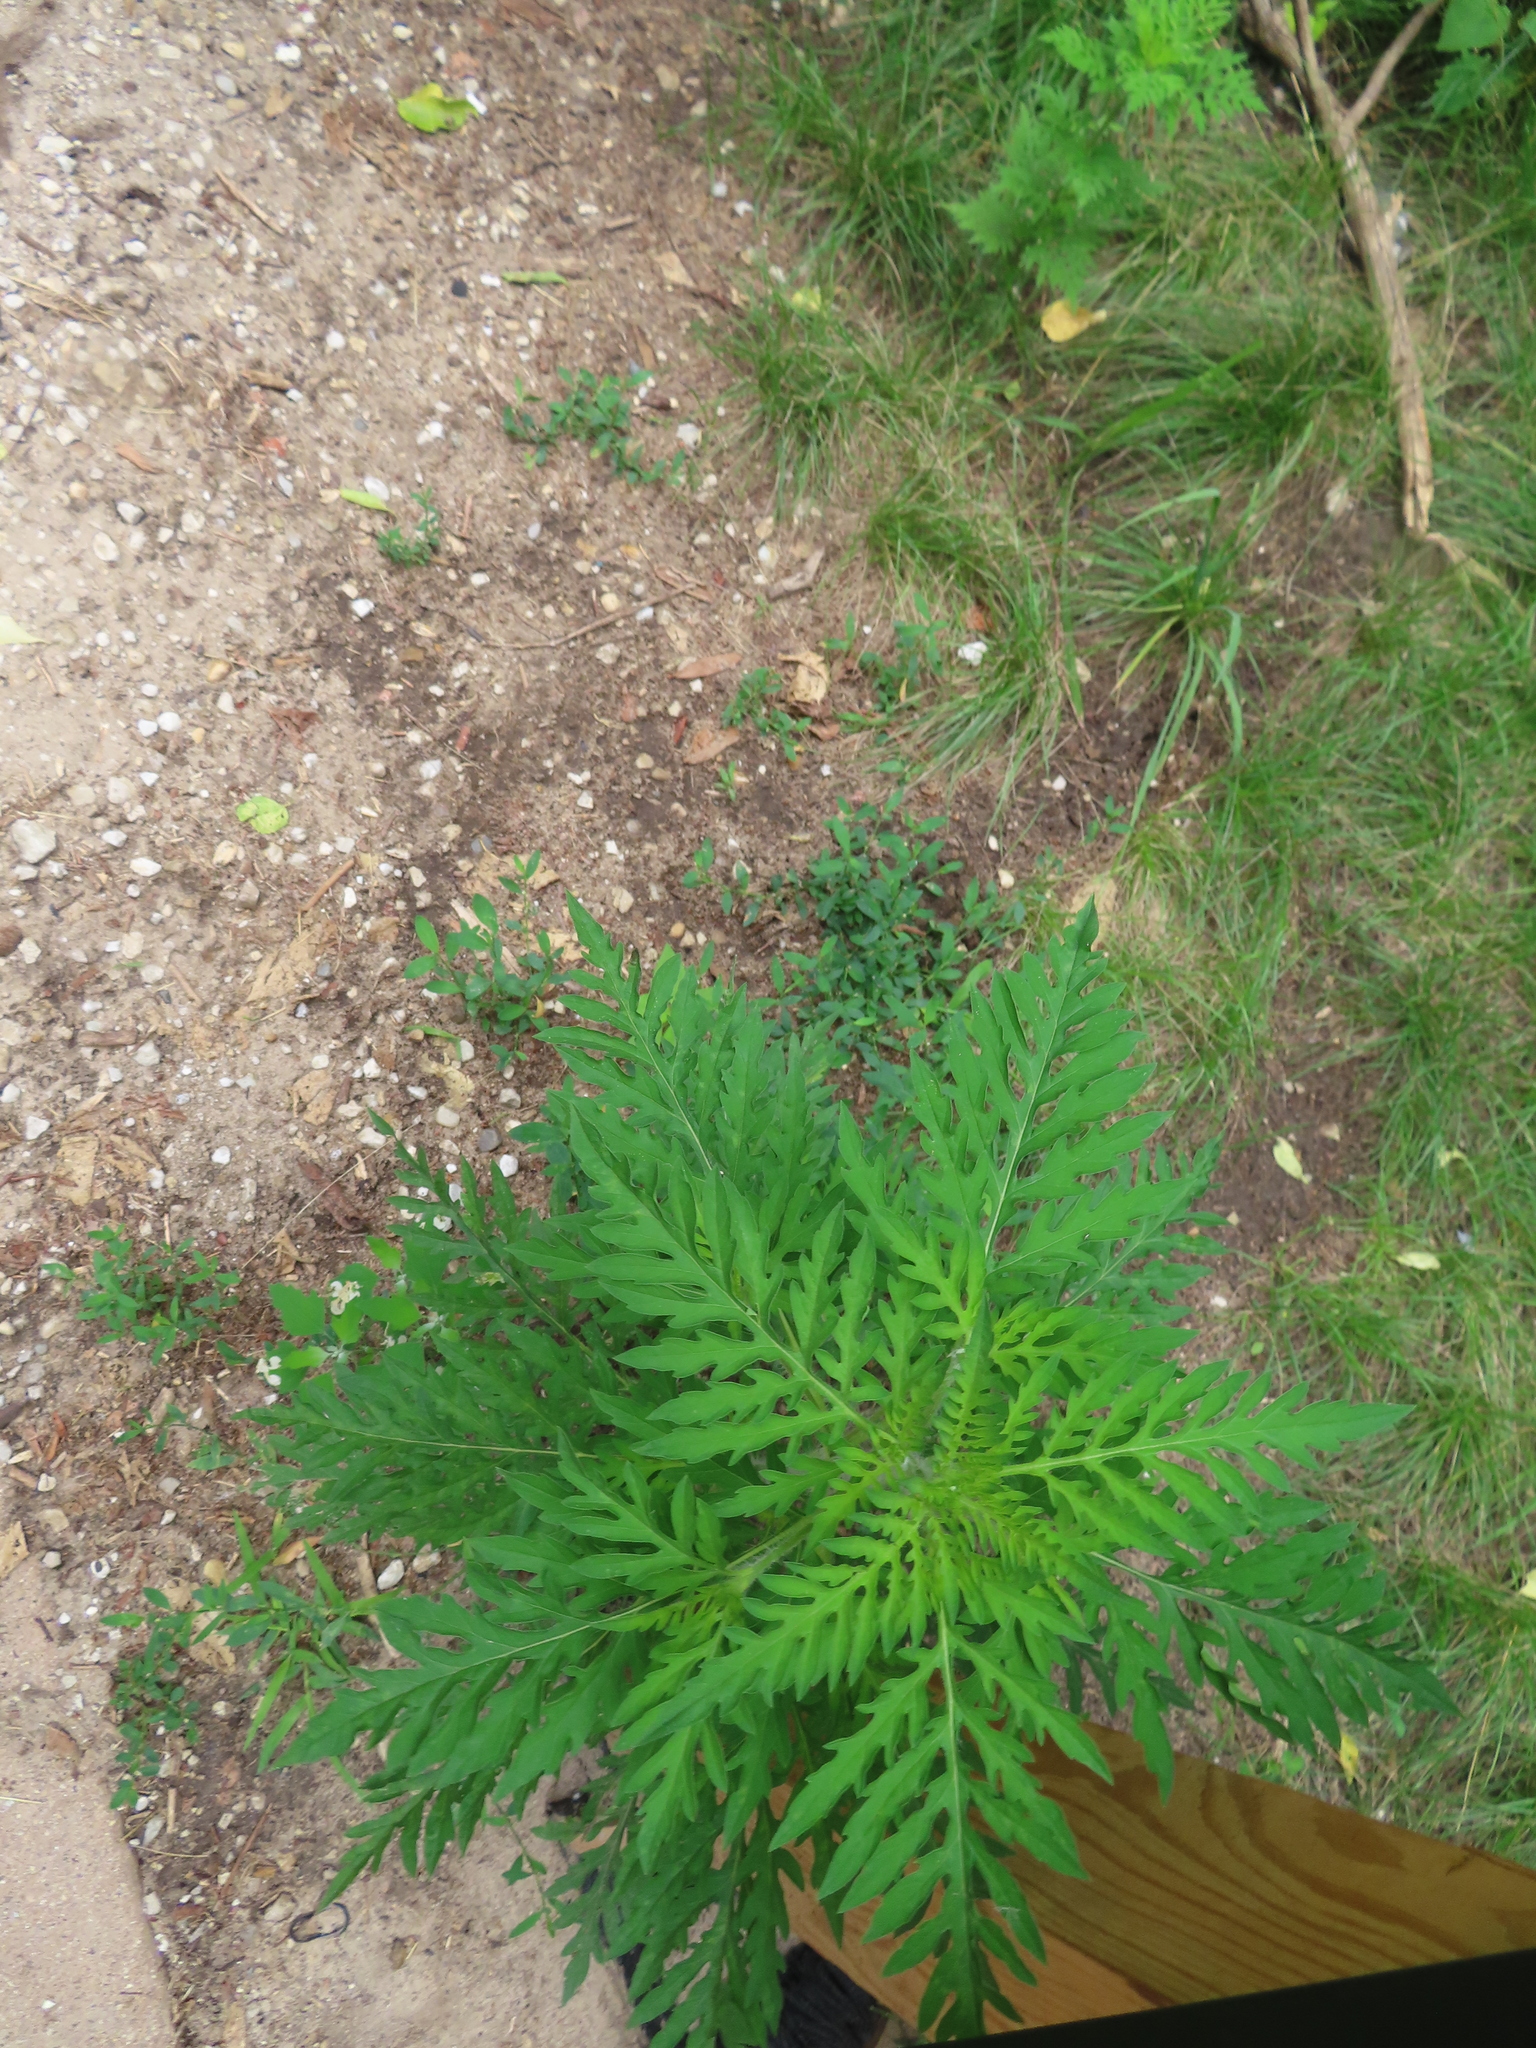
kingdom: Plantae
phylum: Tracheophyta
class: Magnoliopsida
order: Asterales
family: Asteraceae
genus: Ambrosia
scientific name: Ambrosia artemisiifolia
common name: Annual ragweed
